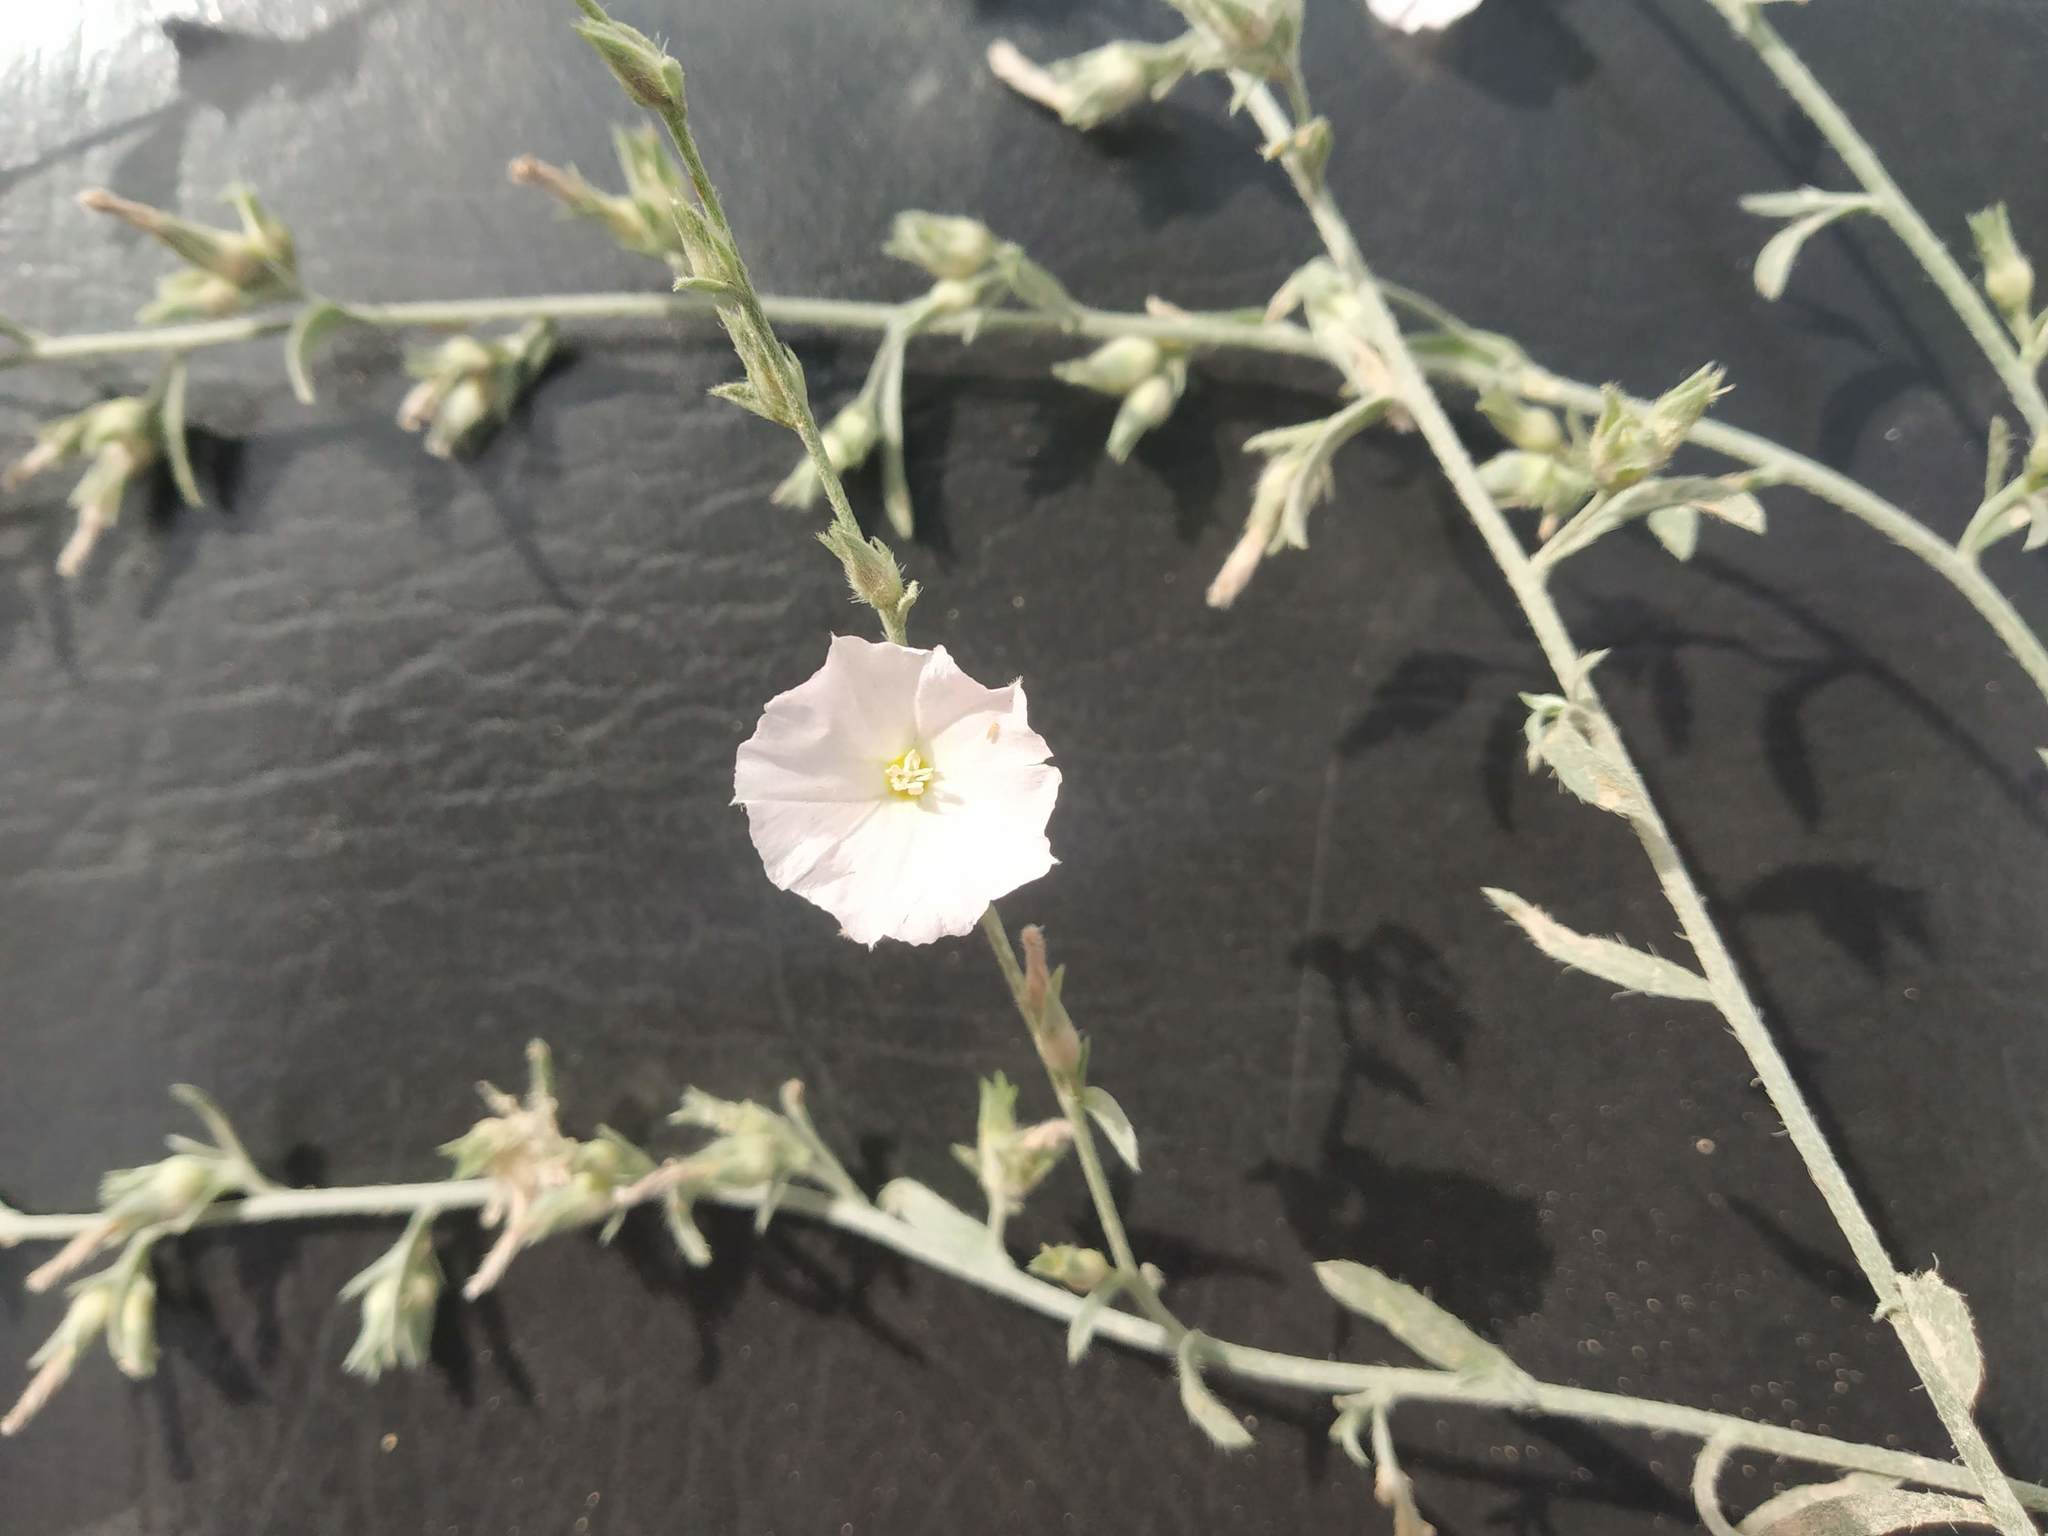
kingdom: Plantae
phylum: Tracheophyta
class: Magnoliopsida
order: Solanales
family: Convolvulaceae
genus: Convolvulus
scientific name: Convolvulus prostratus
